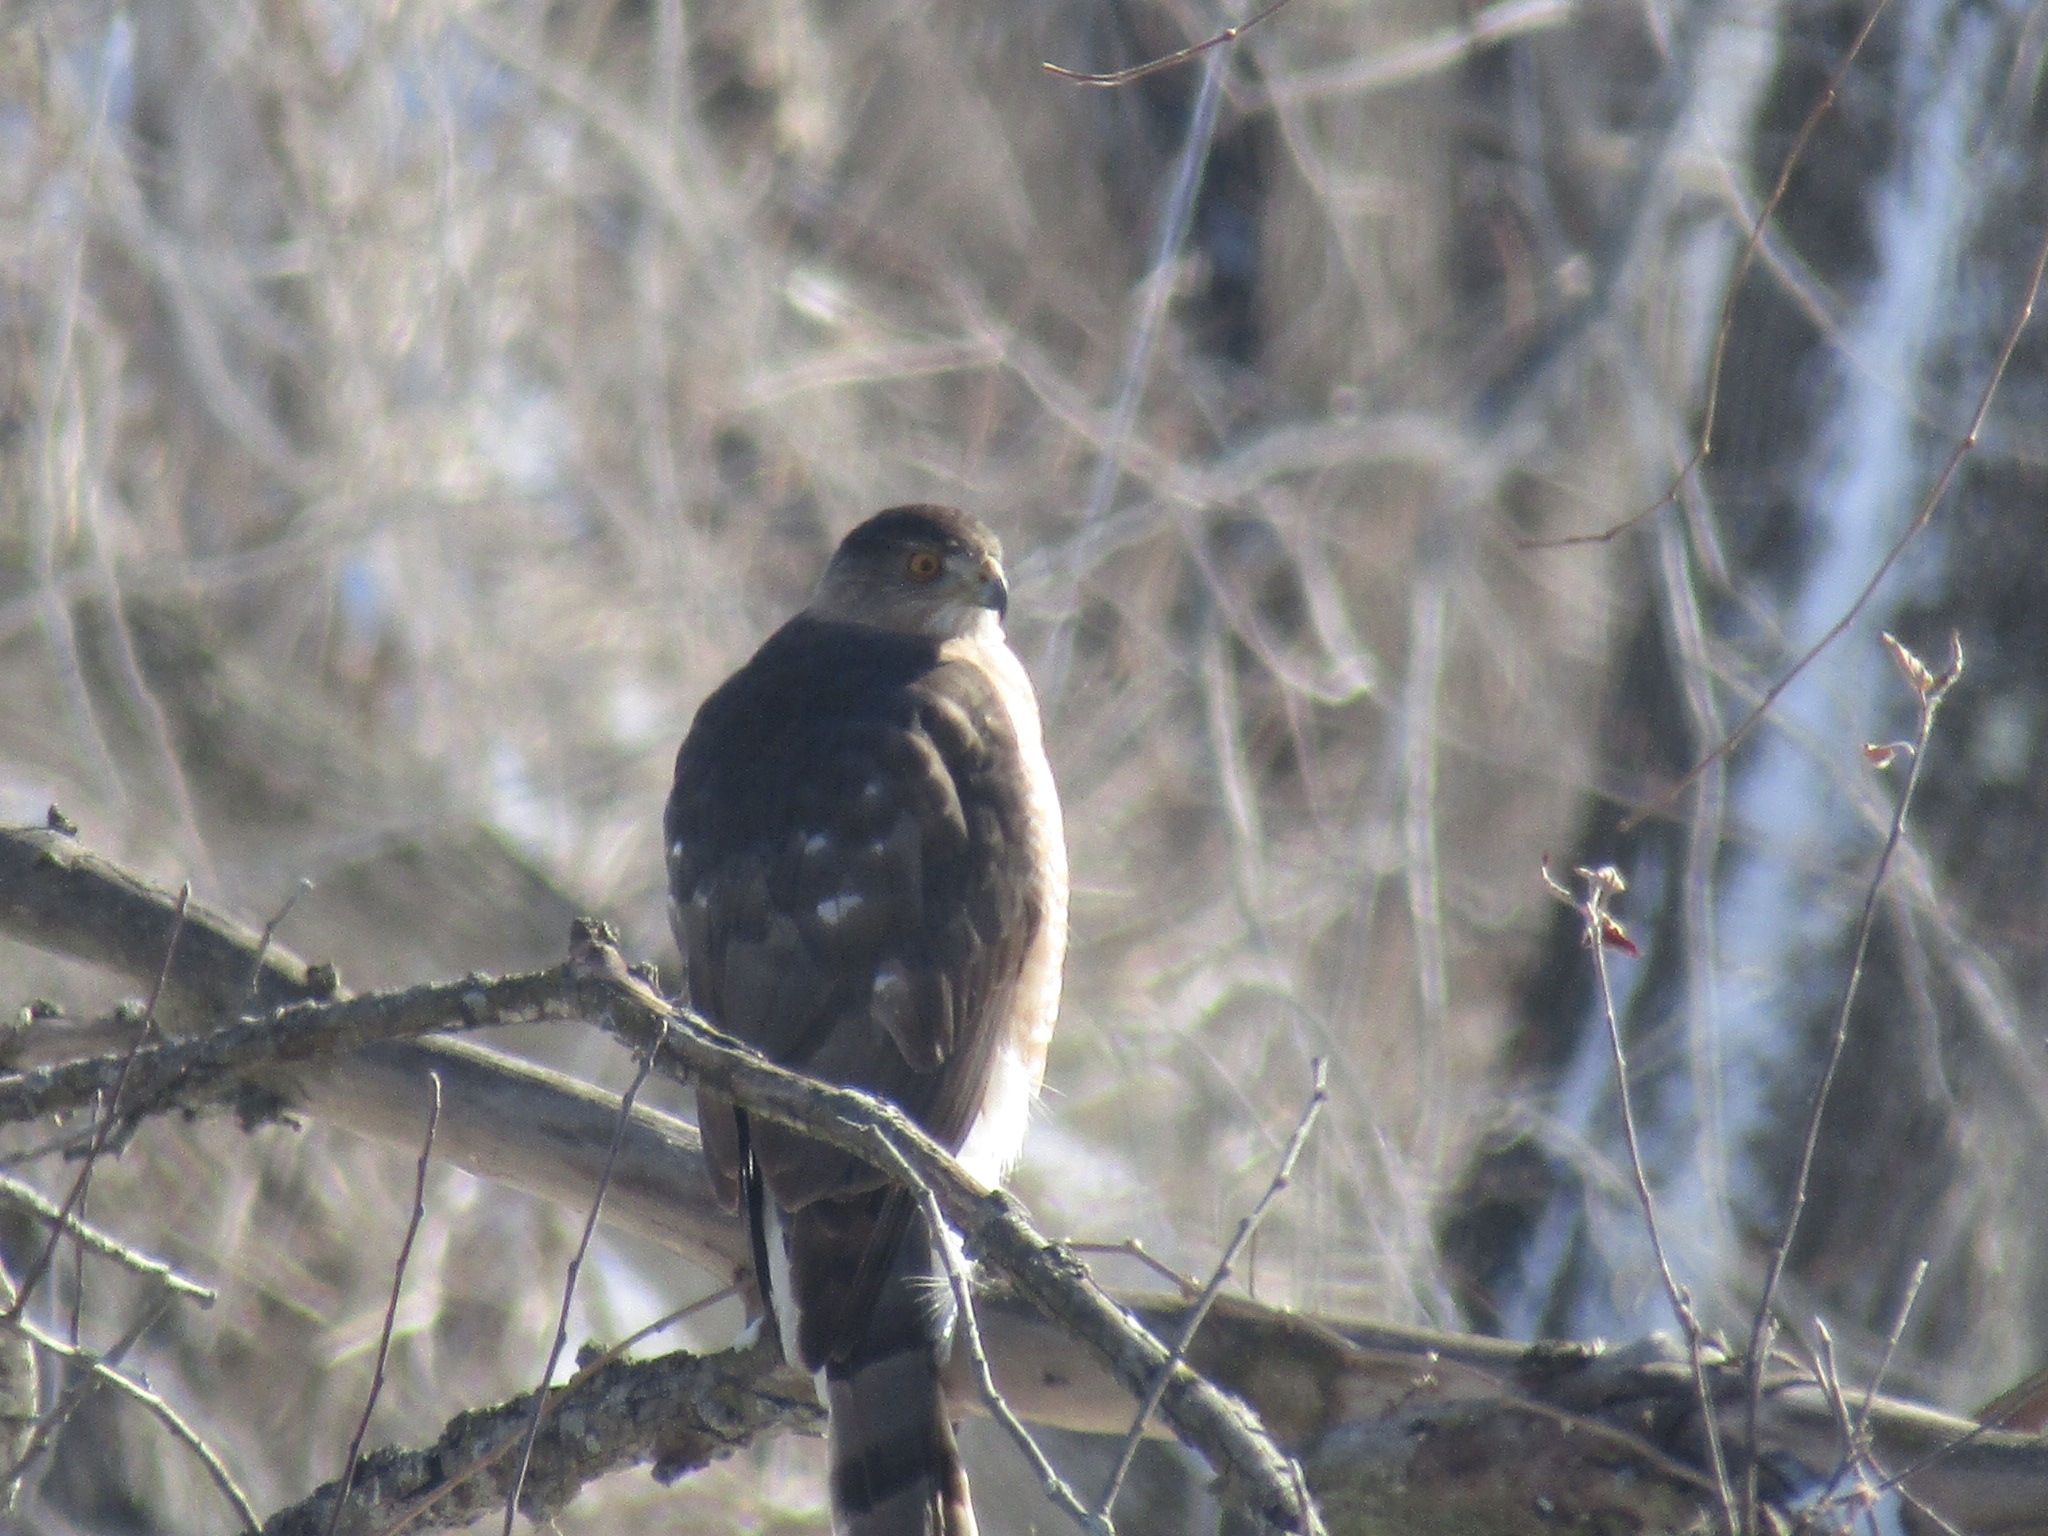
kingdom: Animalia
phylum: Chordata
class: Aves
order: Accipitriformes
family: Accipitridae
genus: Accipiter
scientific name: Accipiter cooperii
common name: Cooper's hawk
